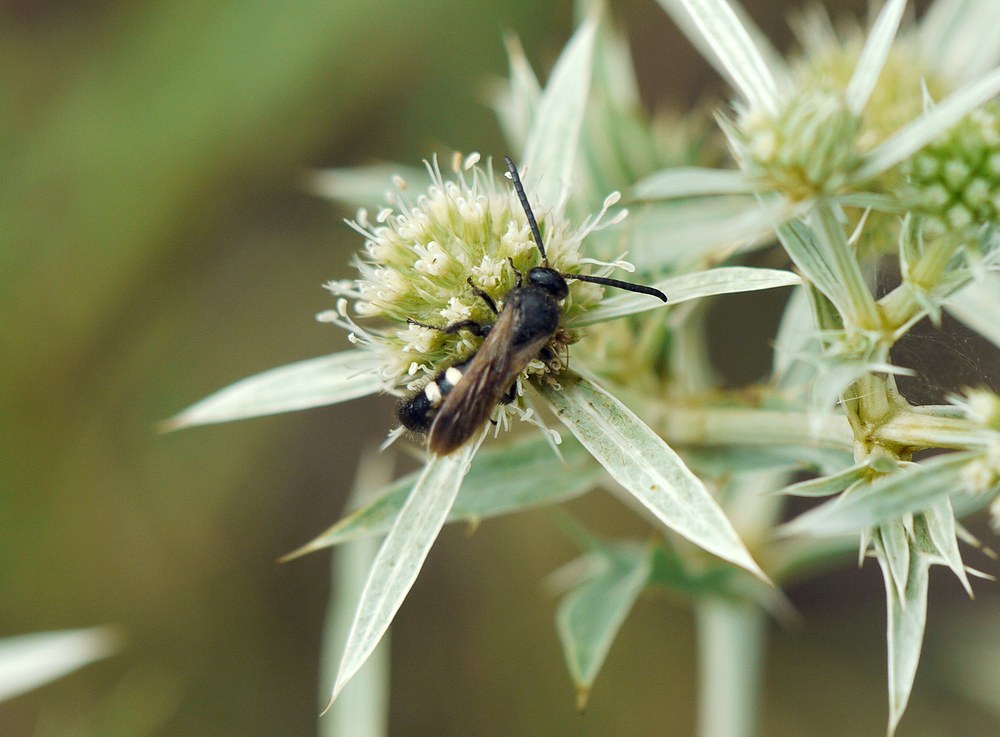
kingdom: Animalia
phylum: Arthropoda
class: Insecta
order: Hymenoptera
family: Vespidae
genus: Vespa
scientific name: Vespa sexmaculata
